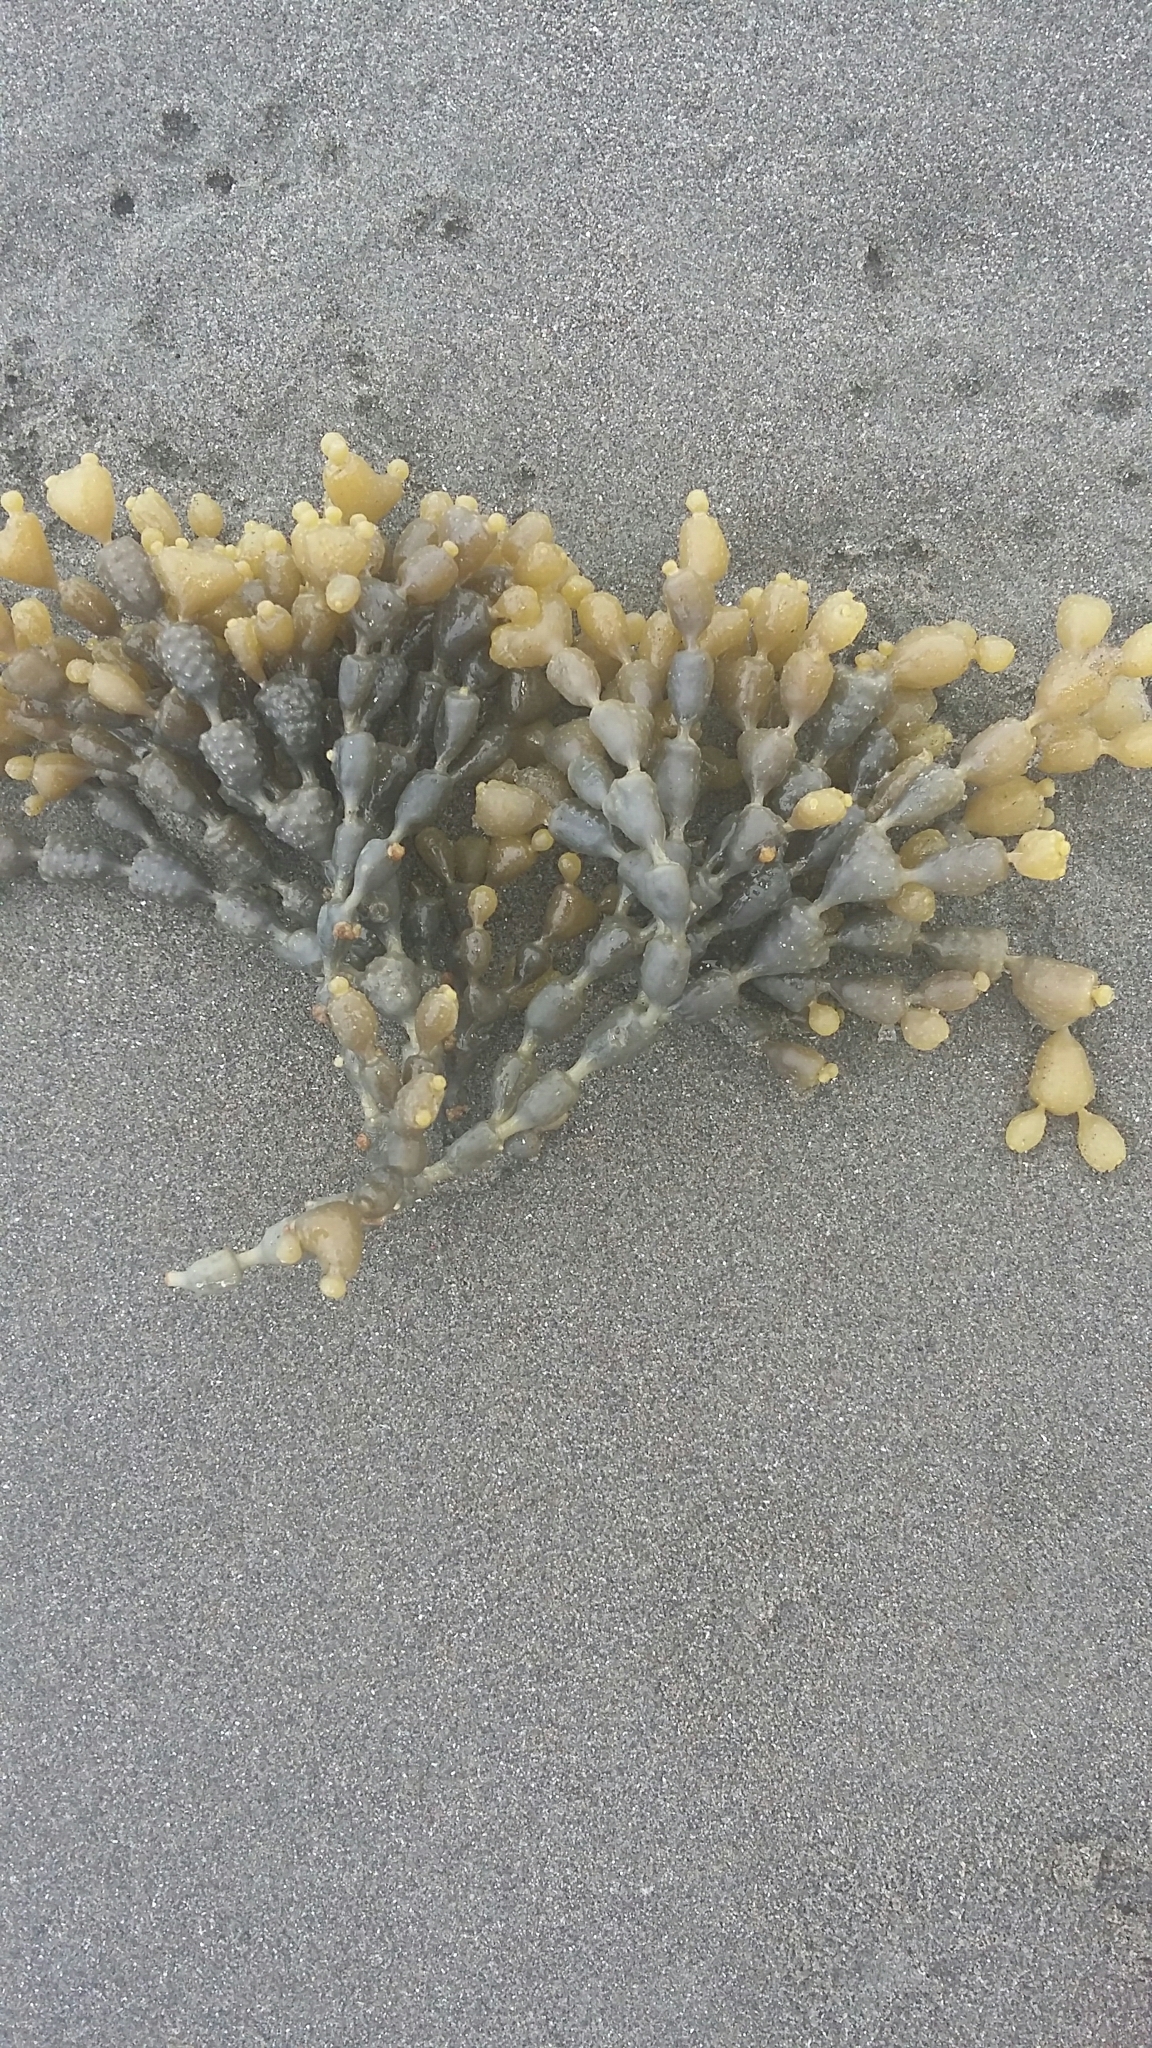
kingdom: Chromista
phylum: Ochrophyta
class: Phaeophyceae
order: Fucales
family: Hormosiraceae
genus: Hormosira
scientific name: Hormosira banksii
